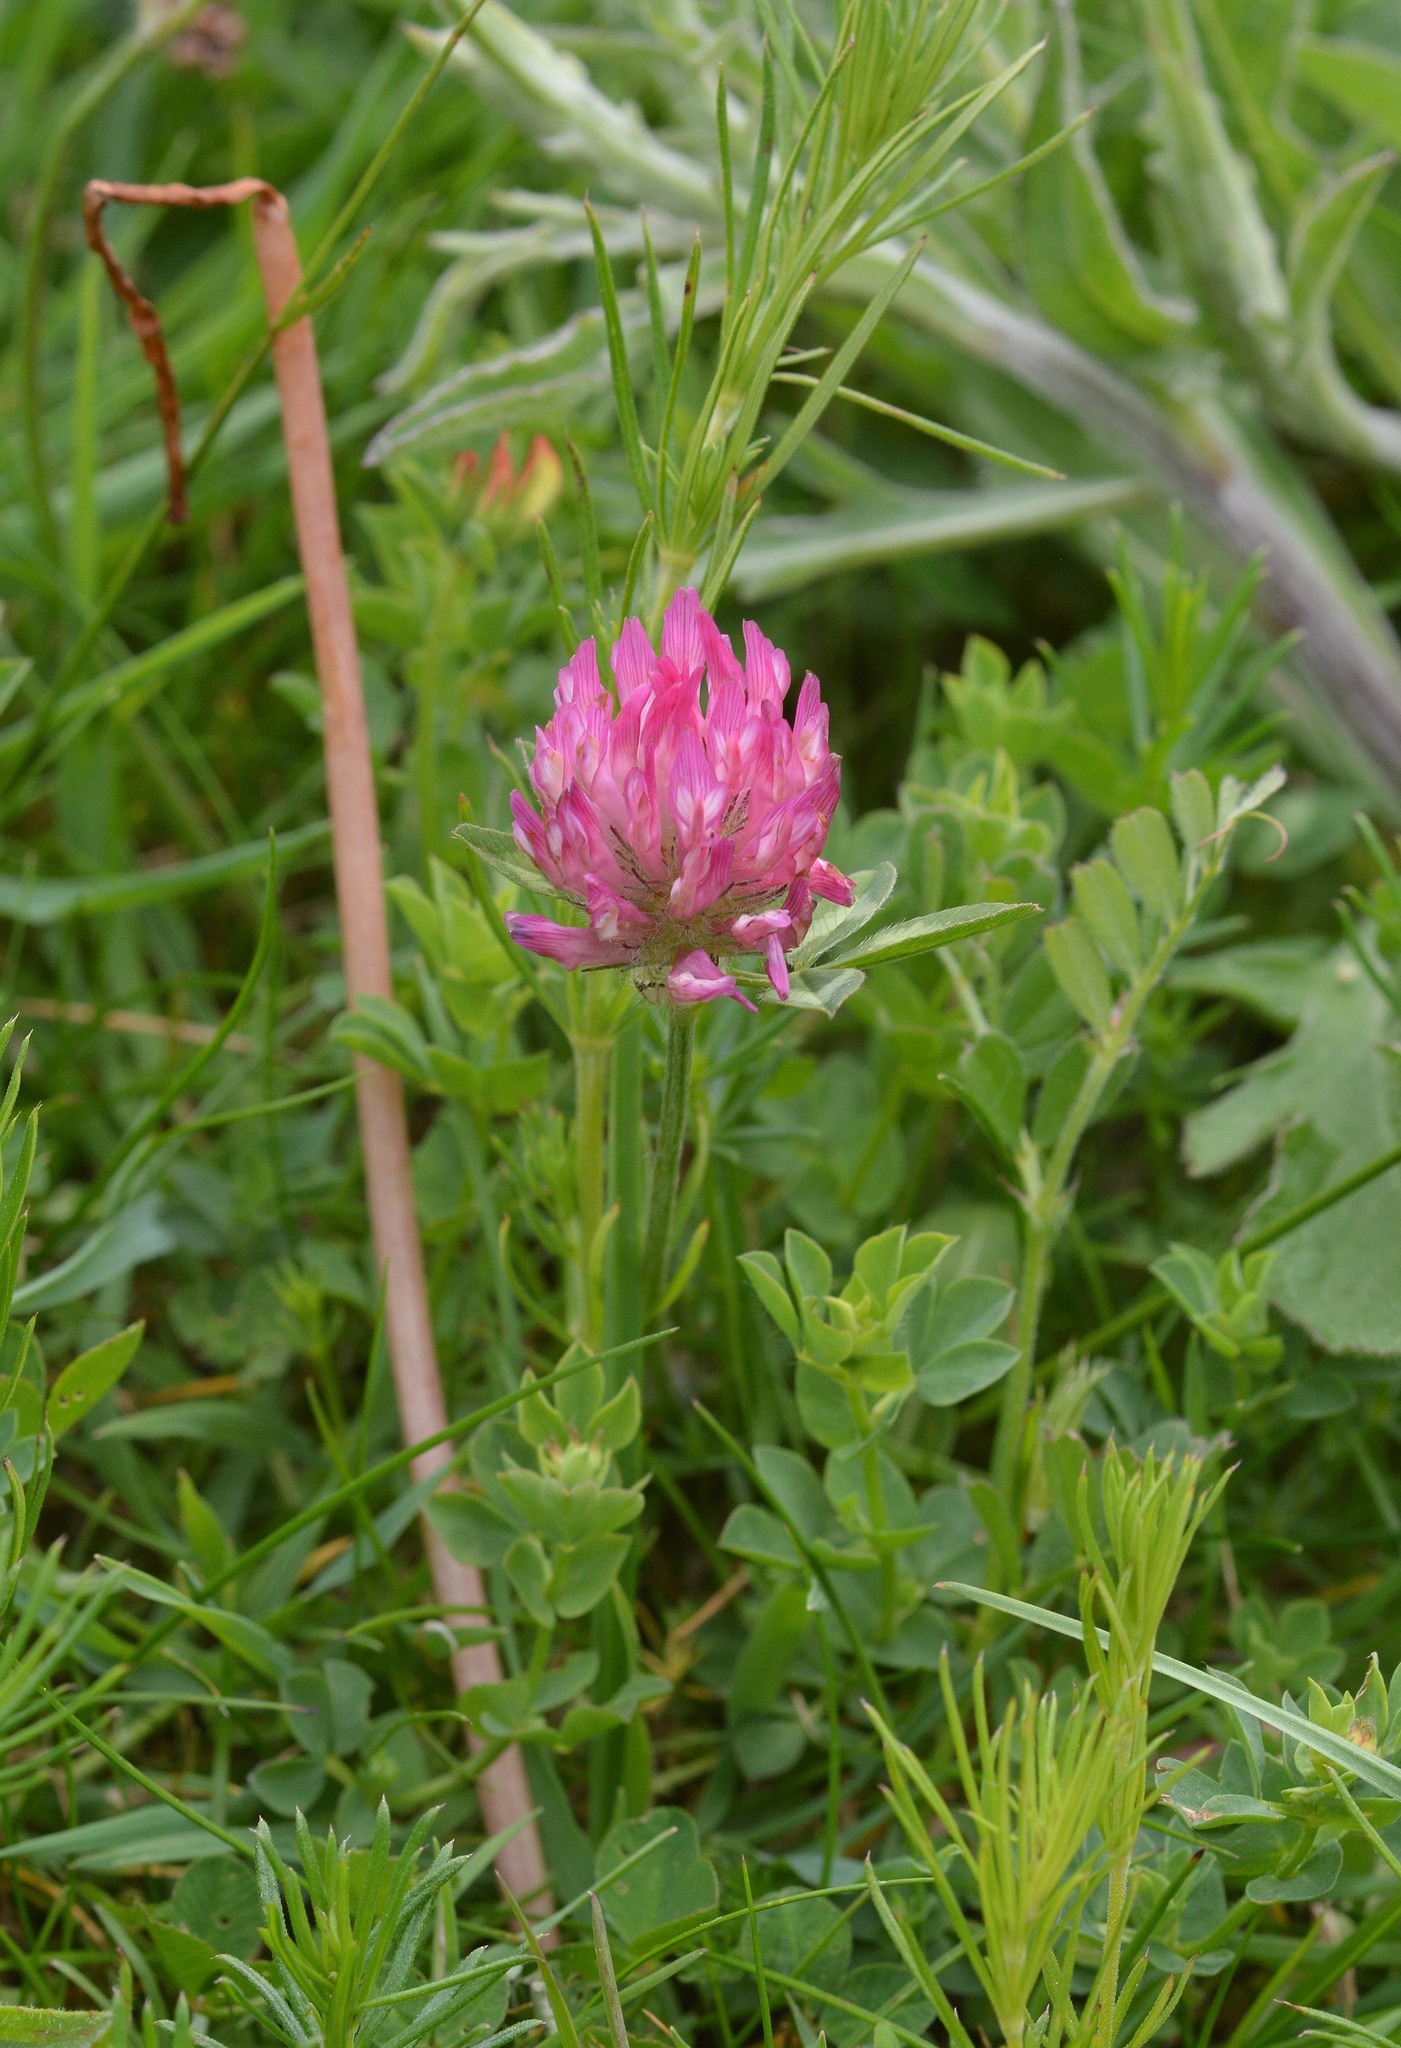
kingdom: Plantae
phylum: Tracheophyta
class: Magnoliopsida
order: Fabales
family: Fabaceae
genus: Trifolium
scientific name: Trifolium pratense
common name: Red clover
